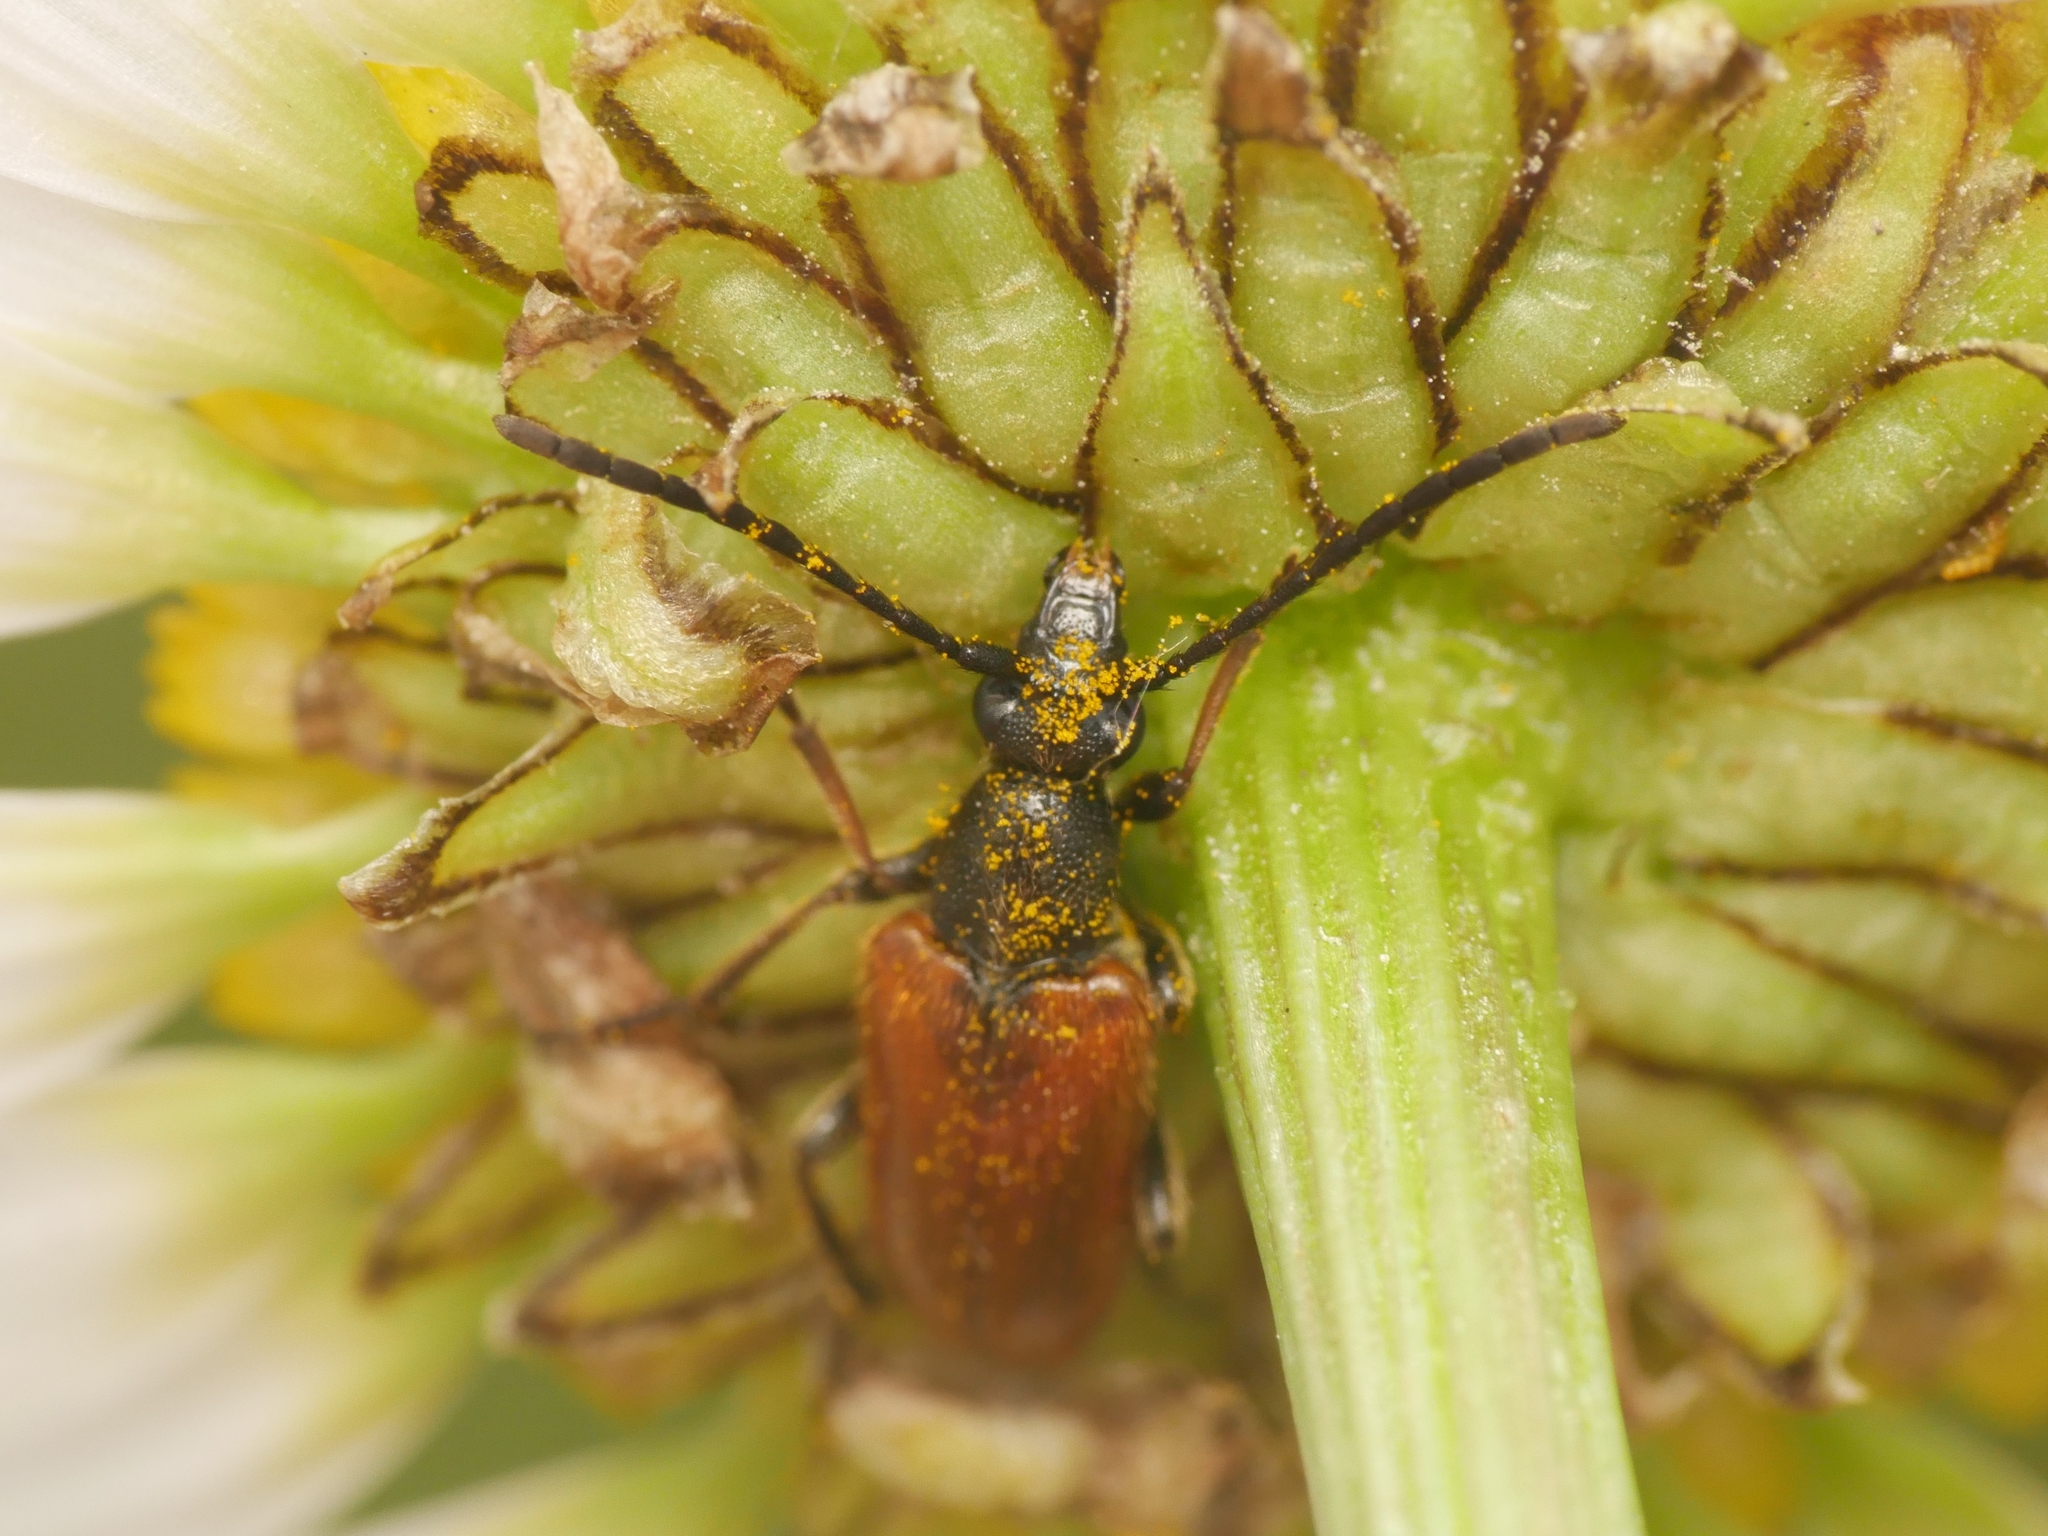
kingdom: Animalia
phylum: Arthropoda
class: Insecta
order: Coleoptera
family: Cerambycidae
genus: Pseudovadonia
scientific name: Pseudovadonia livida
